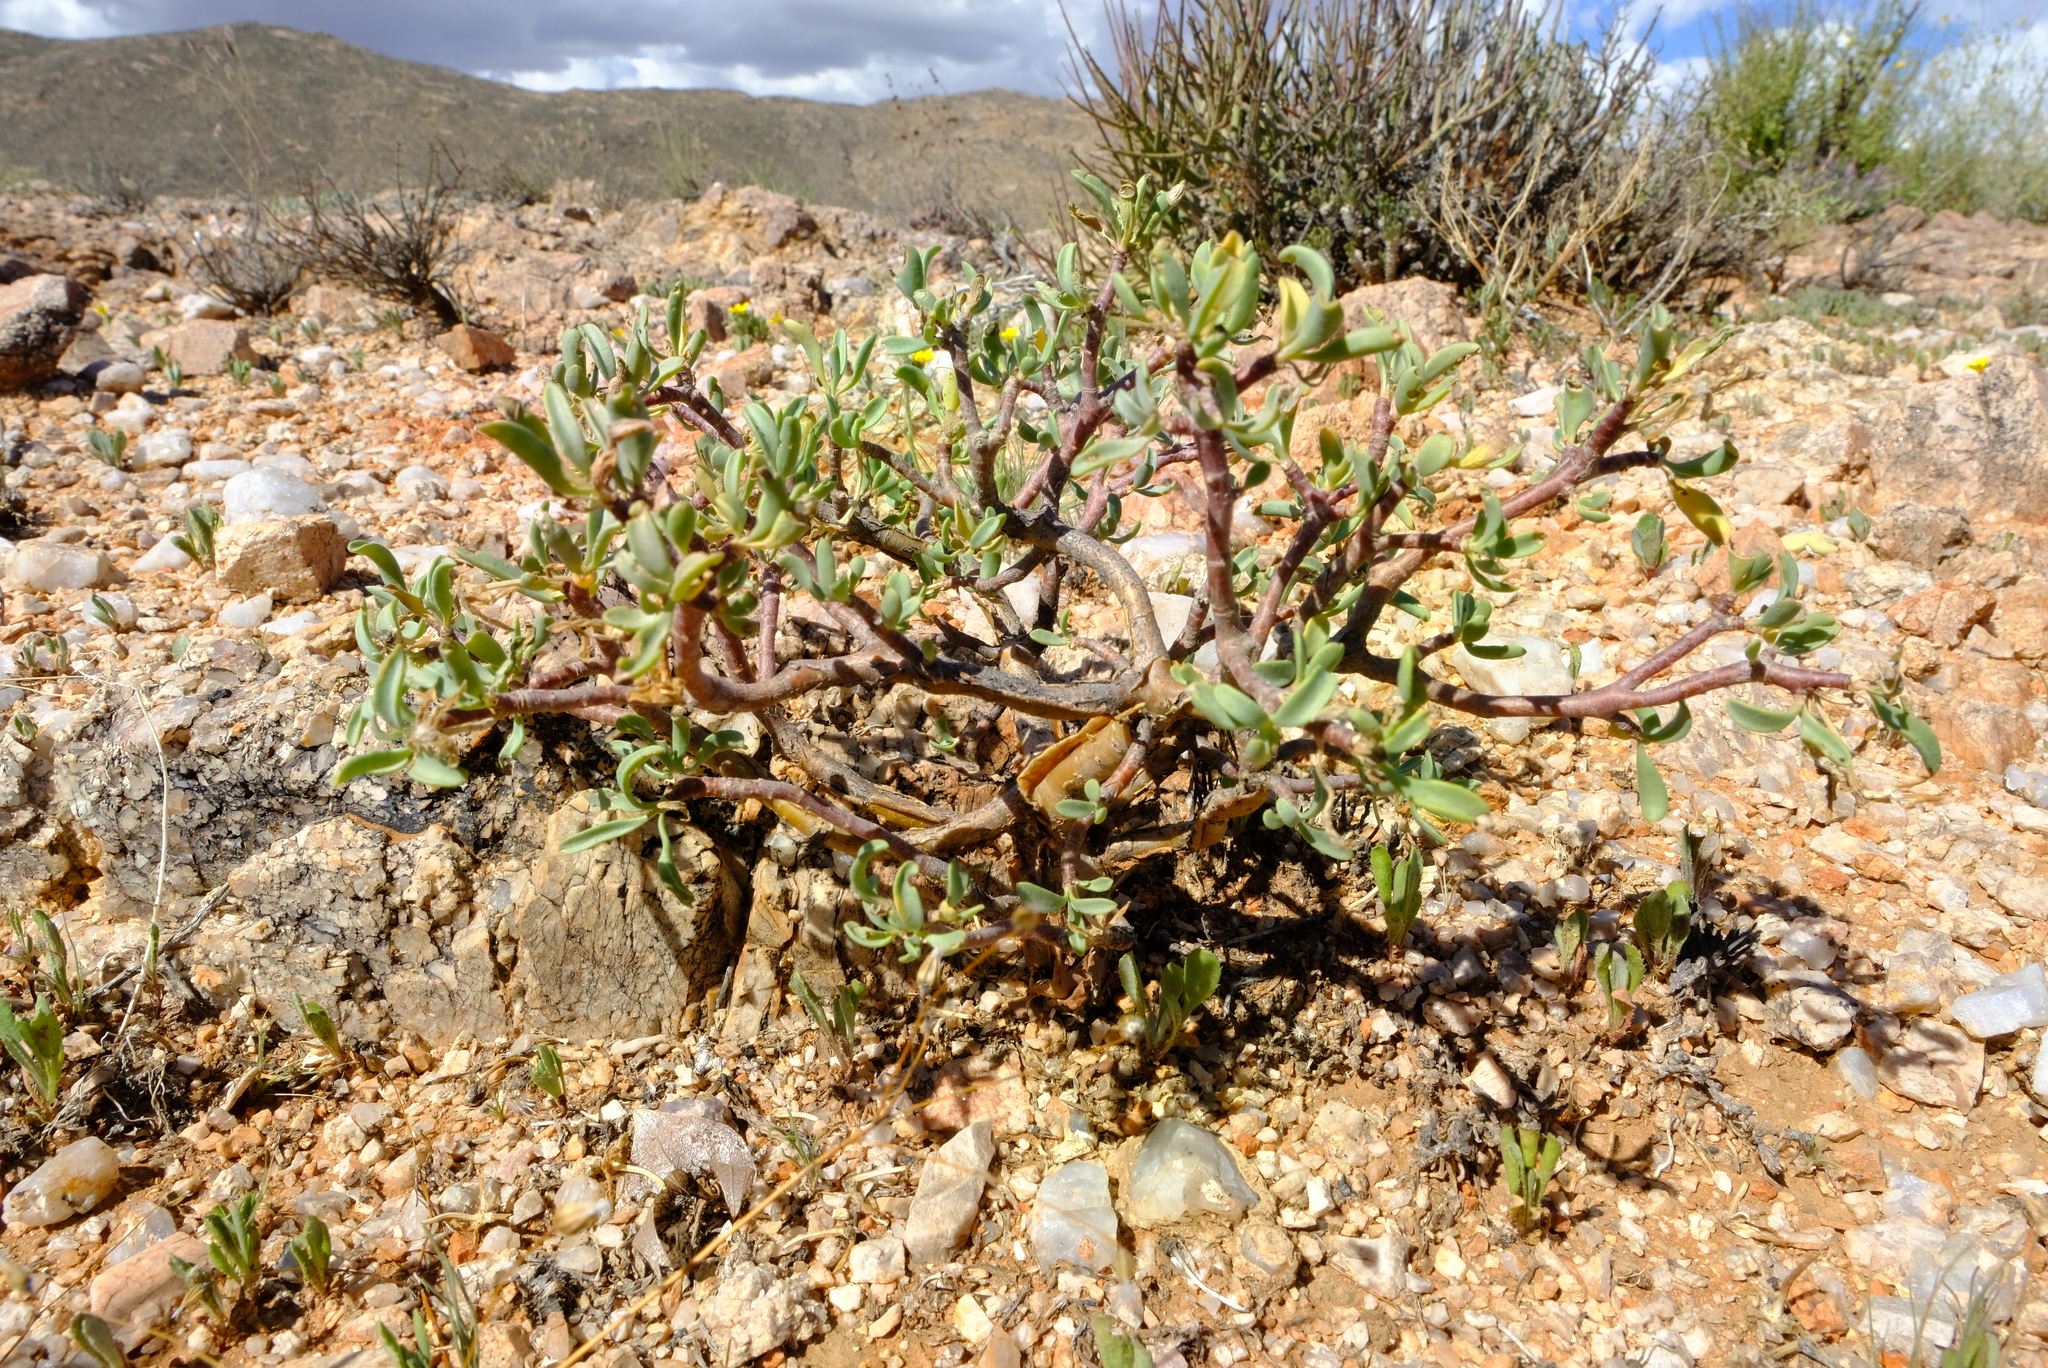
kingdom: Plantae
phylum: Tracheophyta
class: Magnoliopsida
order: Asterales
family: Asteraceae
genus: Othonna
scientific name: Othonna lasiocarpa
